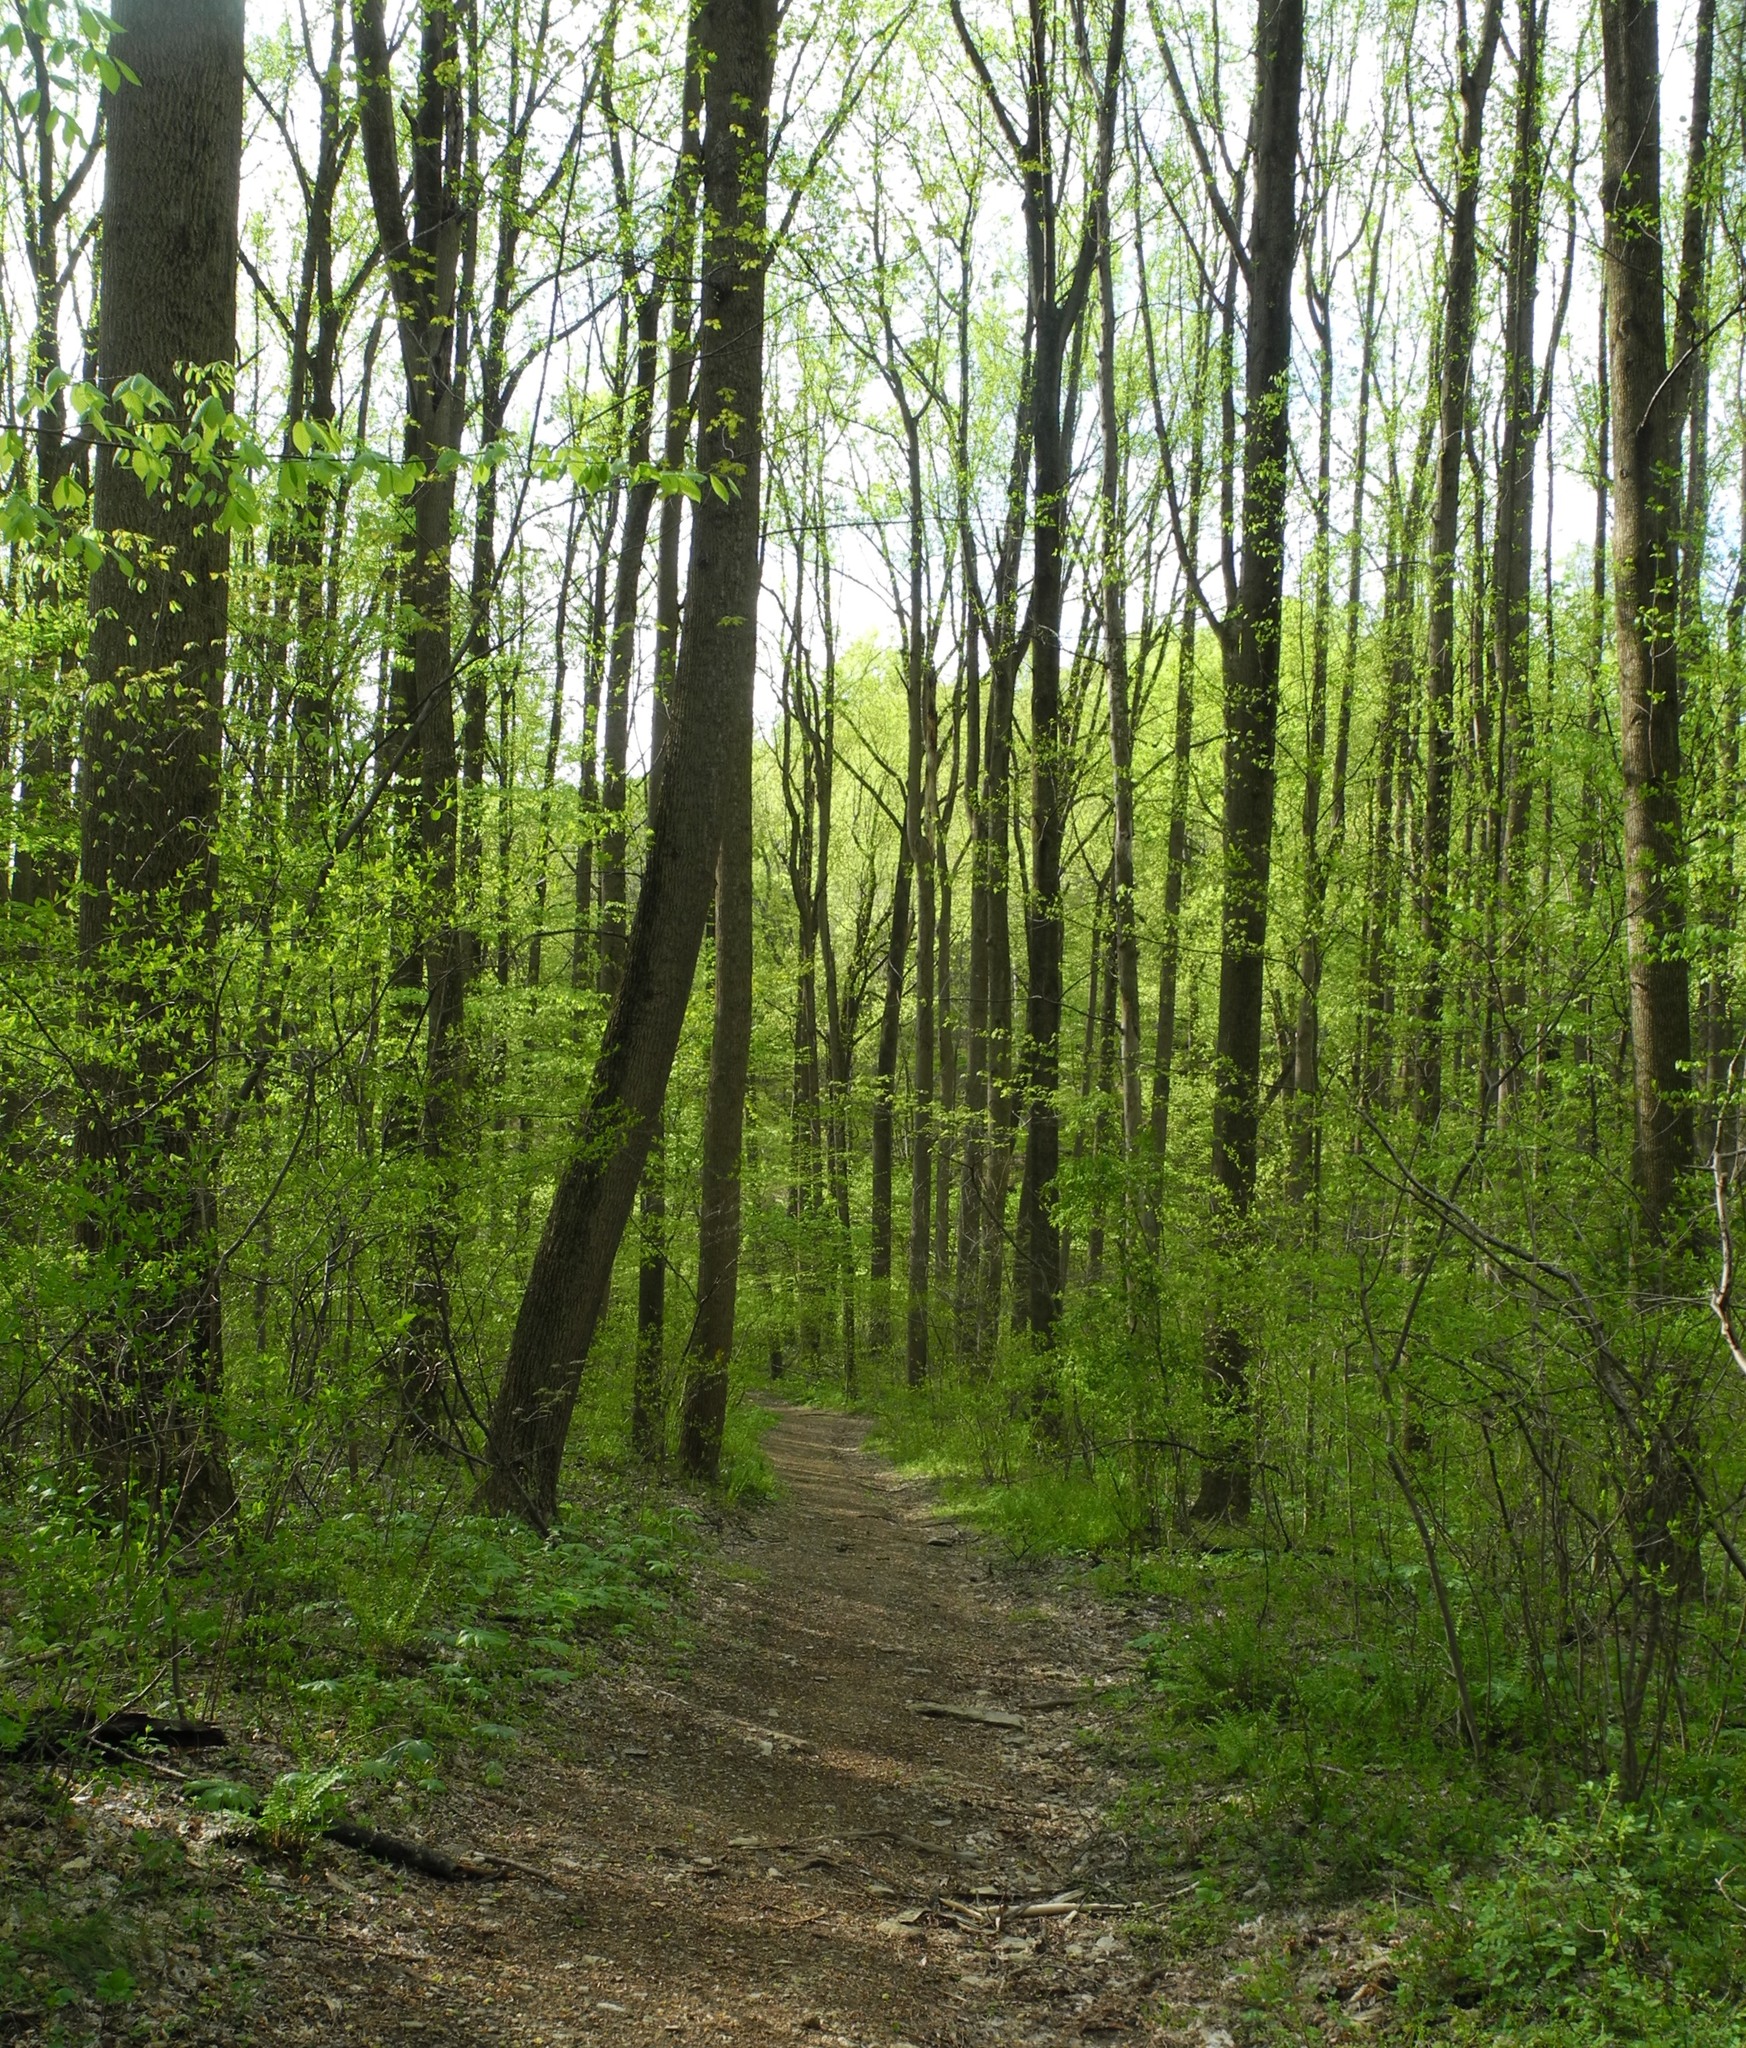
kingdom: Plantae
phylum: Tracheophyta
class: Magnoliopsida
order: Magnoliales
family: Magnoliaceae
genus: Liriodendron
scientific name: Liriodendron tulipifera
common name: Tulip tree
